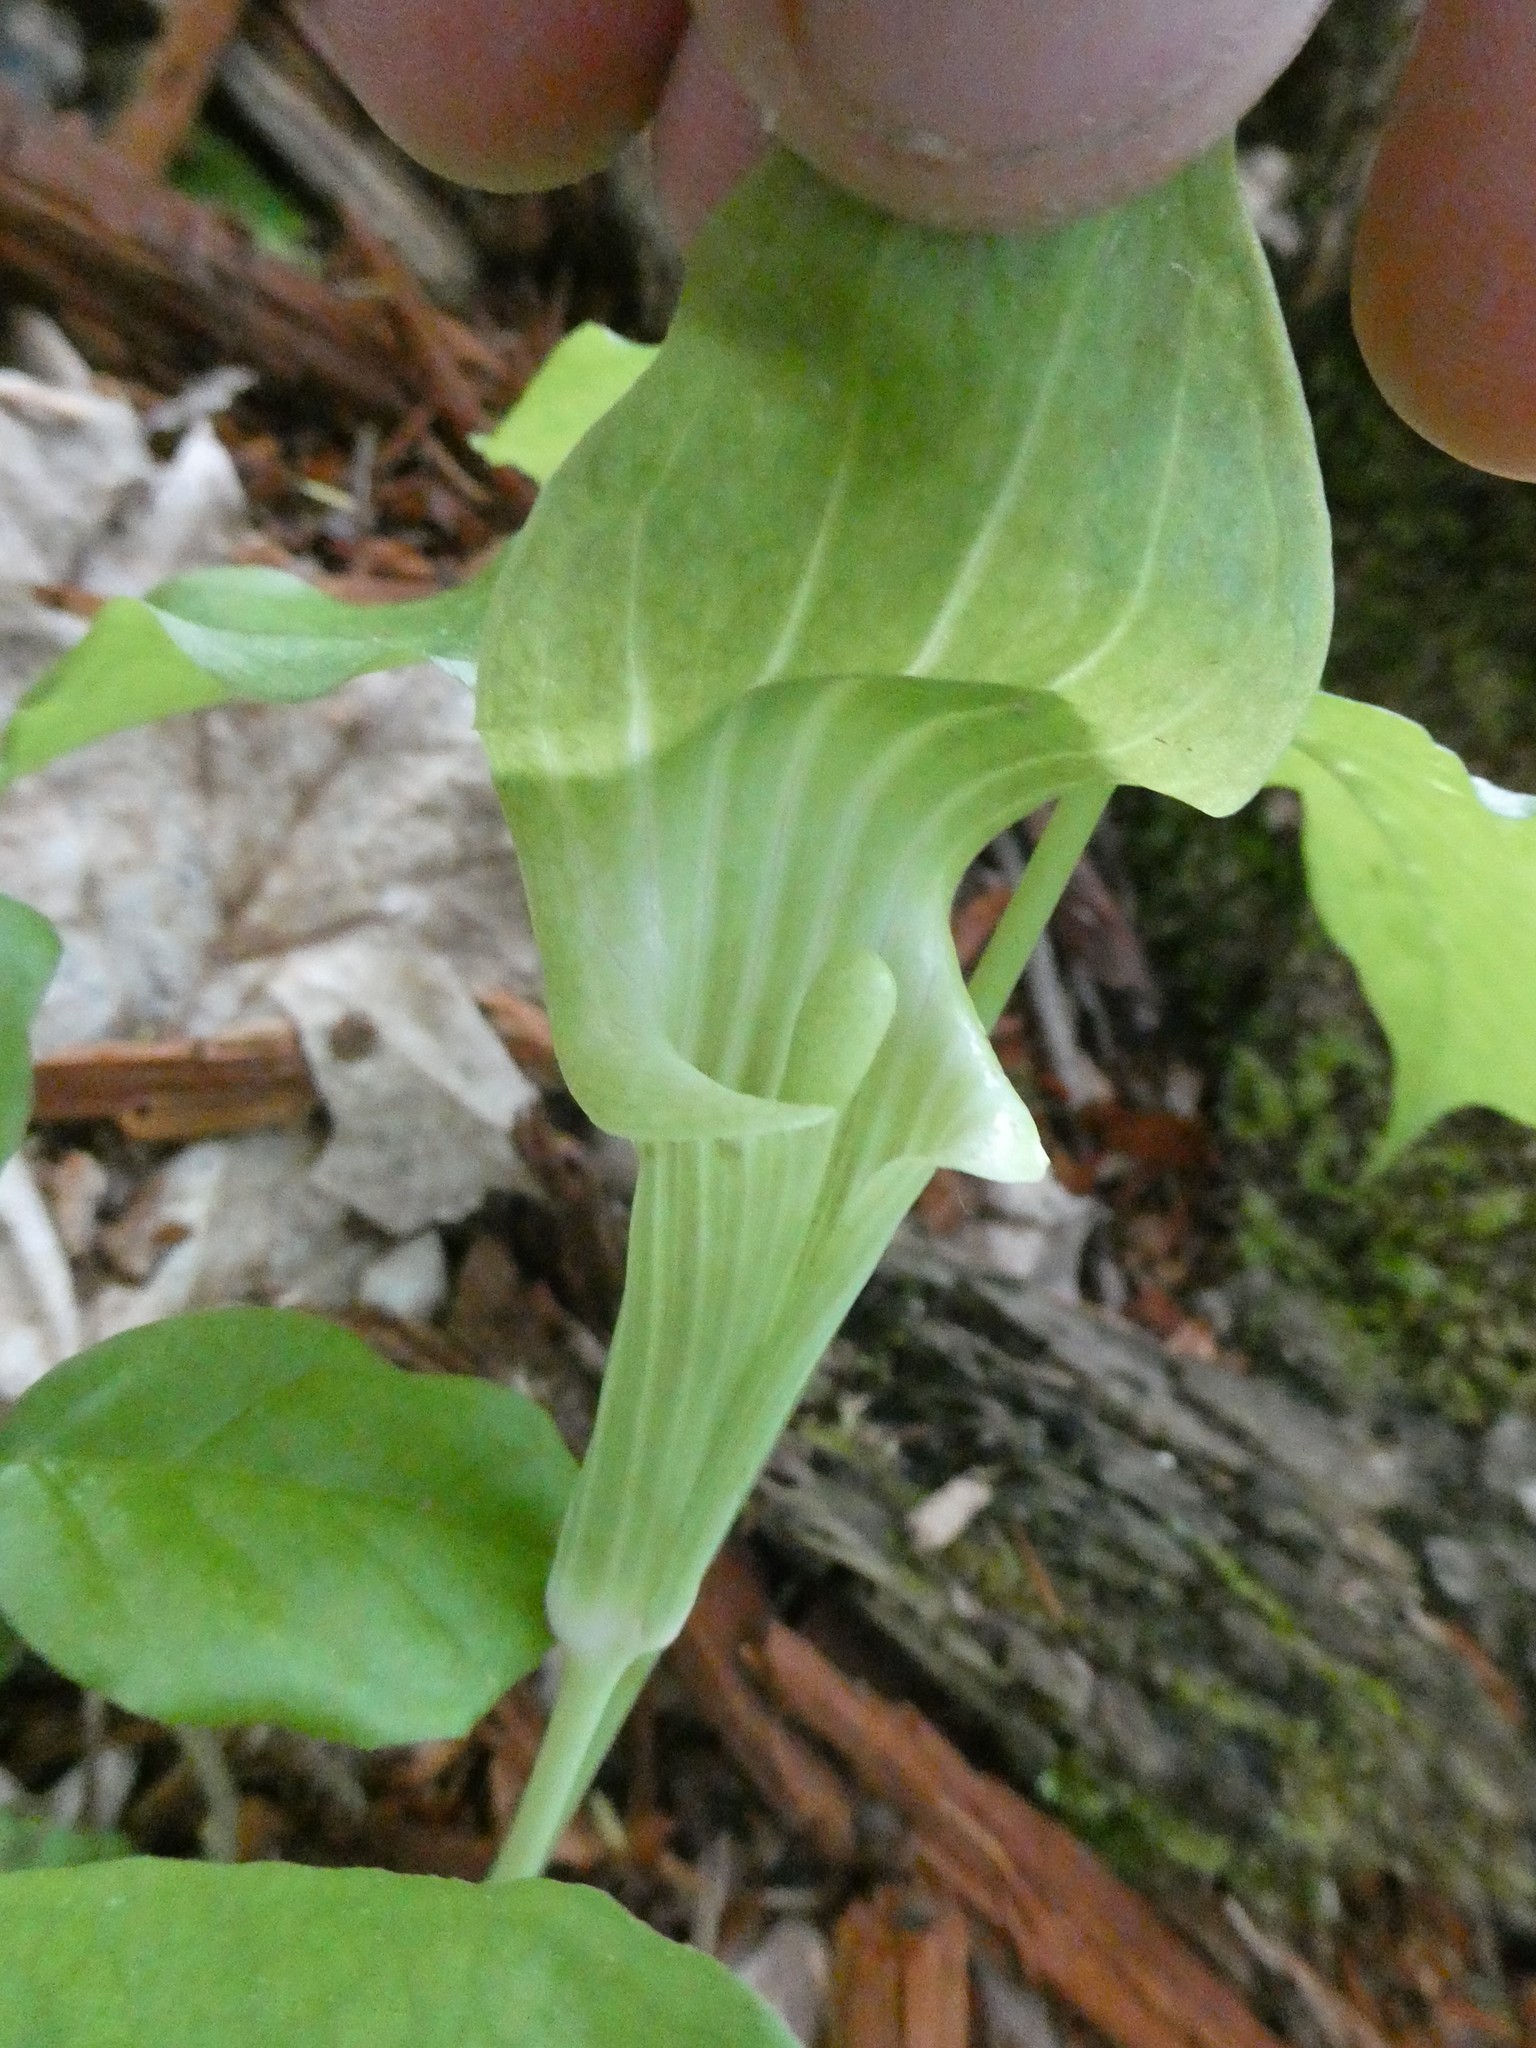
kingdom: Plantae
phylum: Tracheophyta
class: Liliopsida
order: Alismatales
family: Araceae
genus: Arisaema
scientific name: Arisaema triphyllum
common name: Jack-in-the-pulpit
